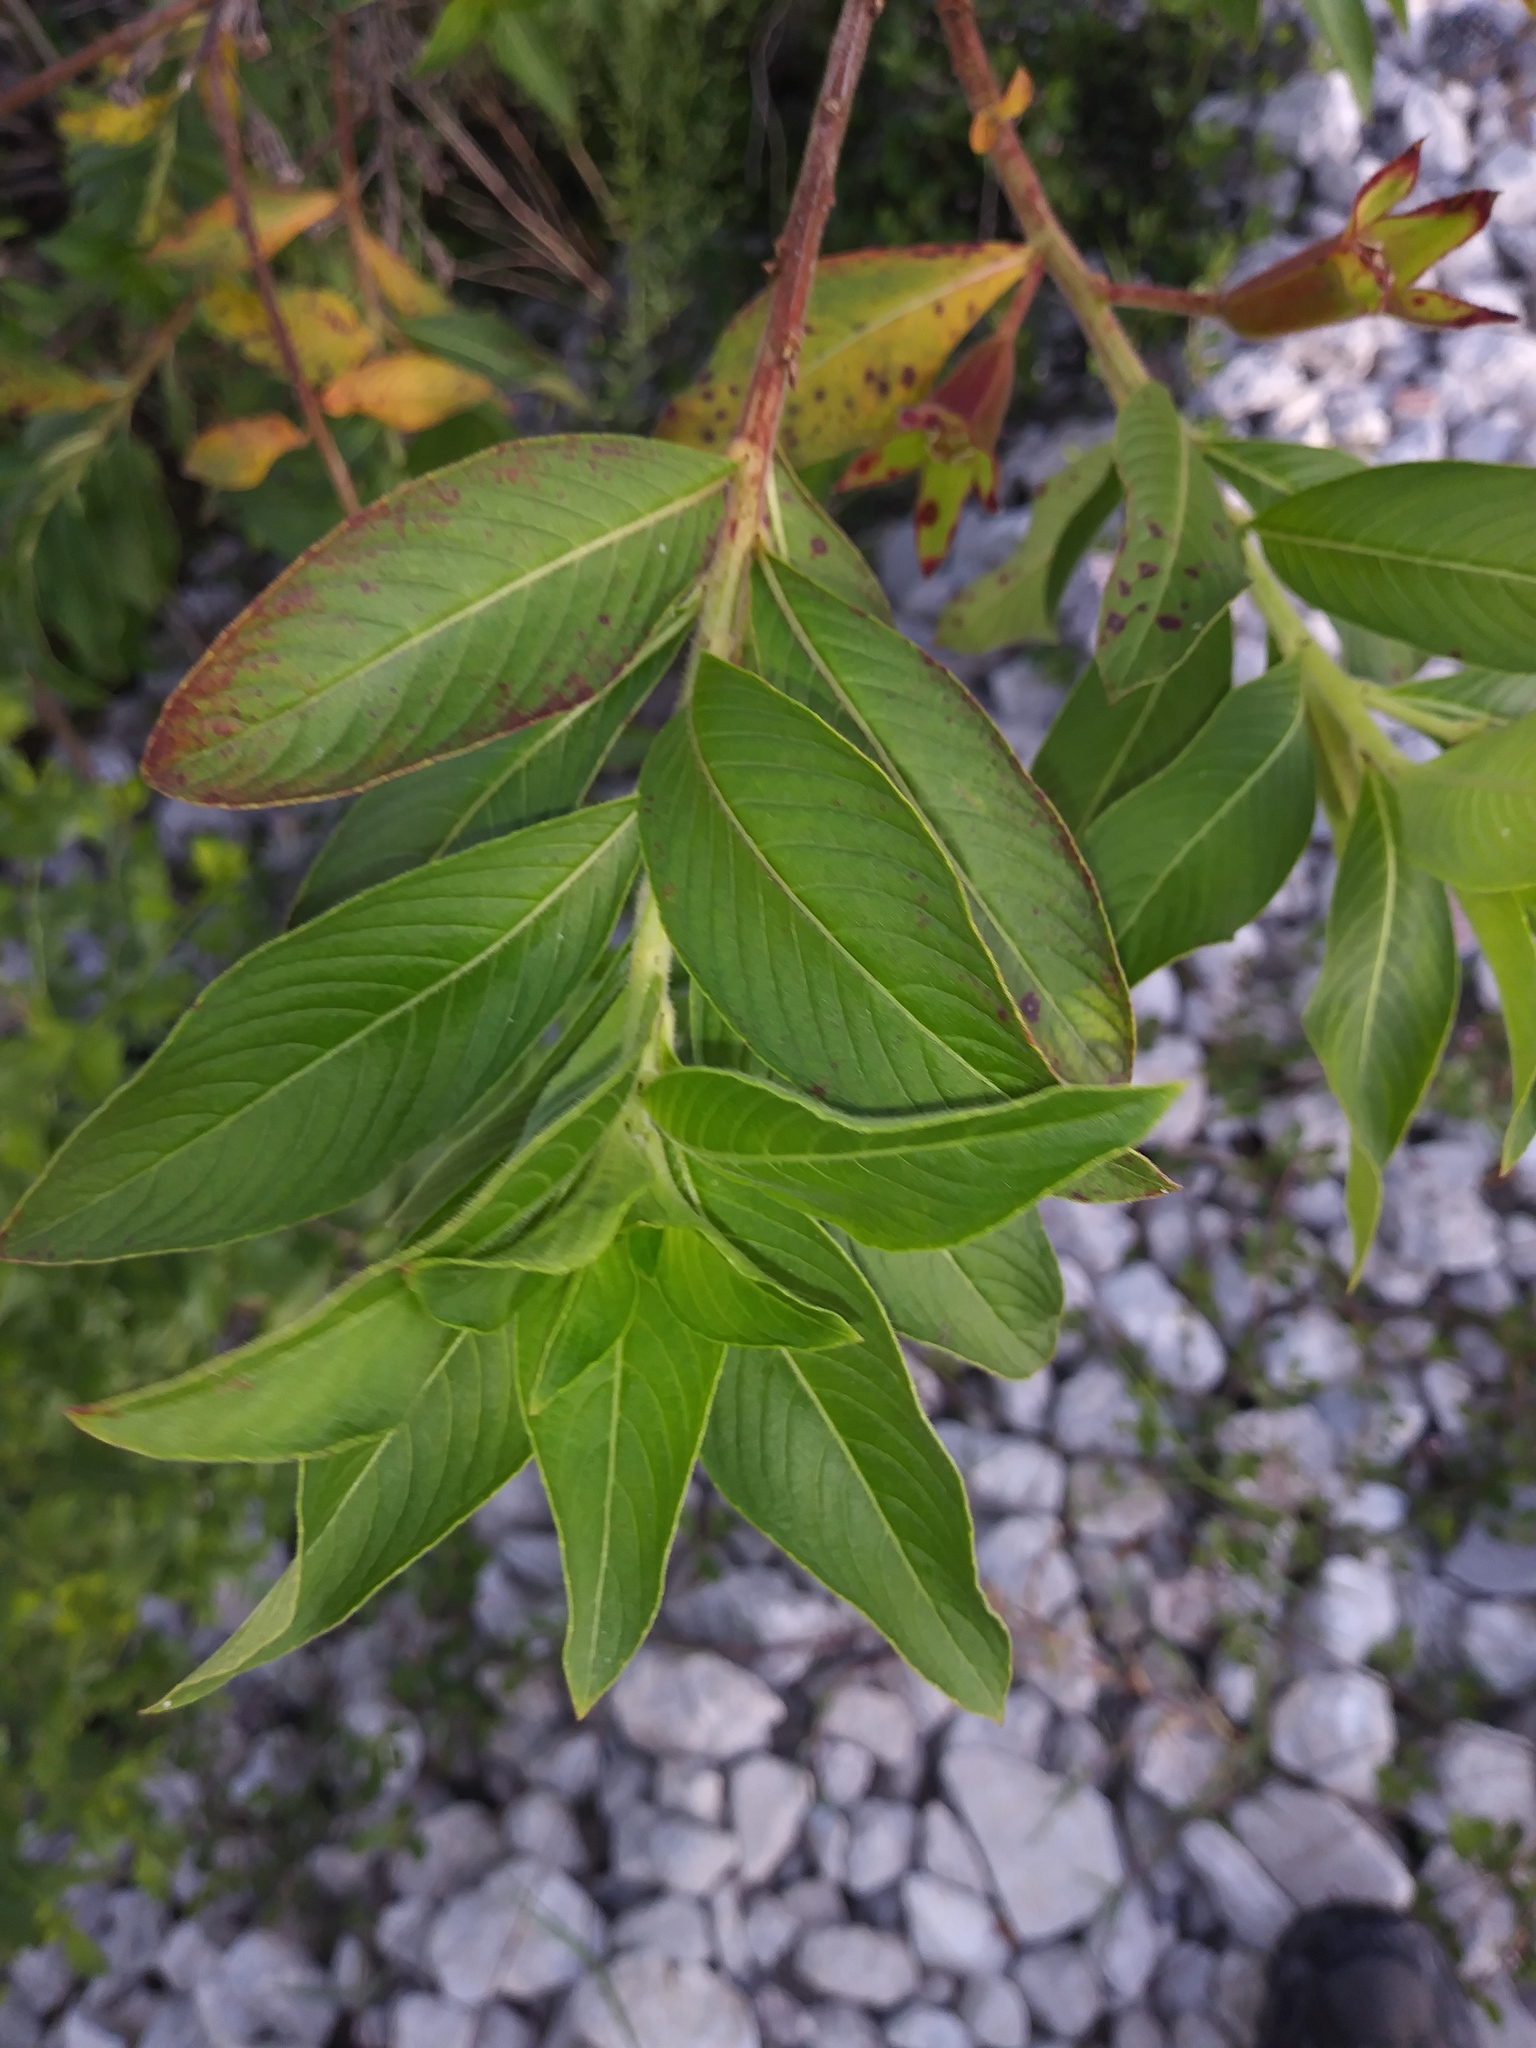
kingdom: Plantae
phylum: Tracheophyta
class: Magnoliopsida
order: Myrtales
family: Onagraceae
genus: Ludwigia
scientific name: Ludwigia peruviana
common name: Peruvian primrose-willow
